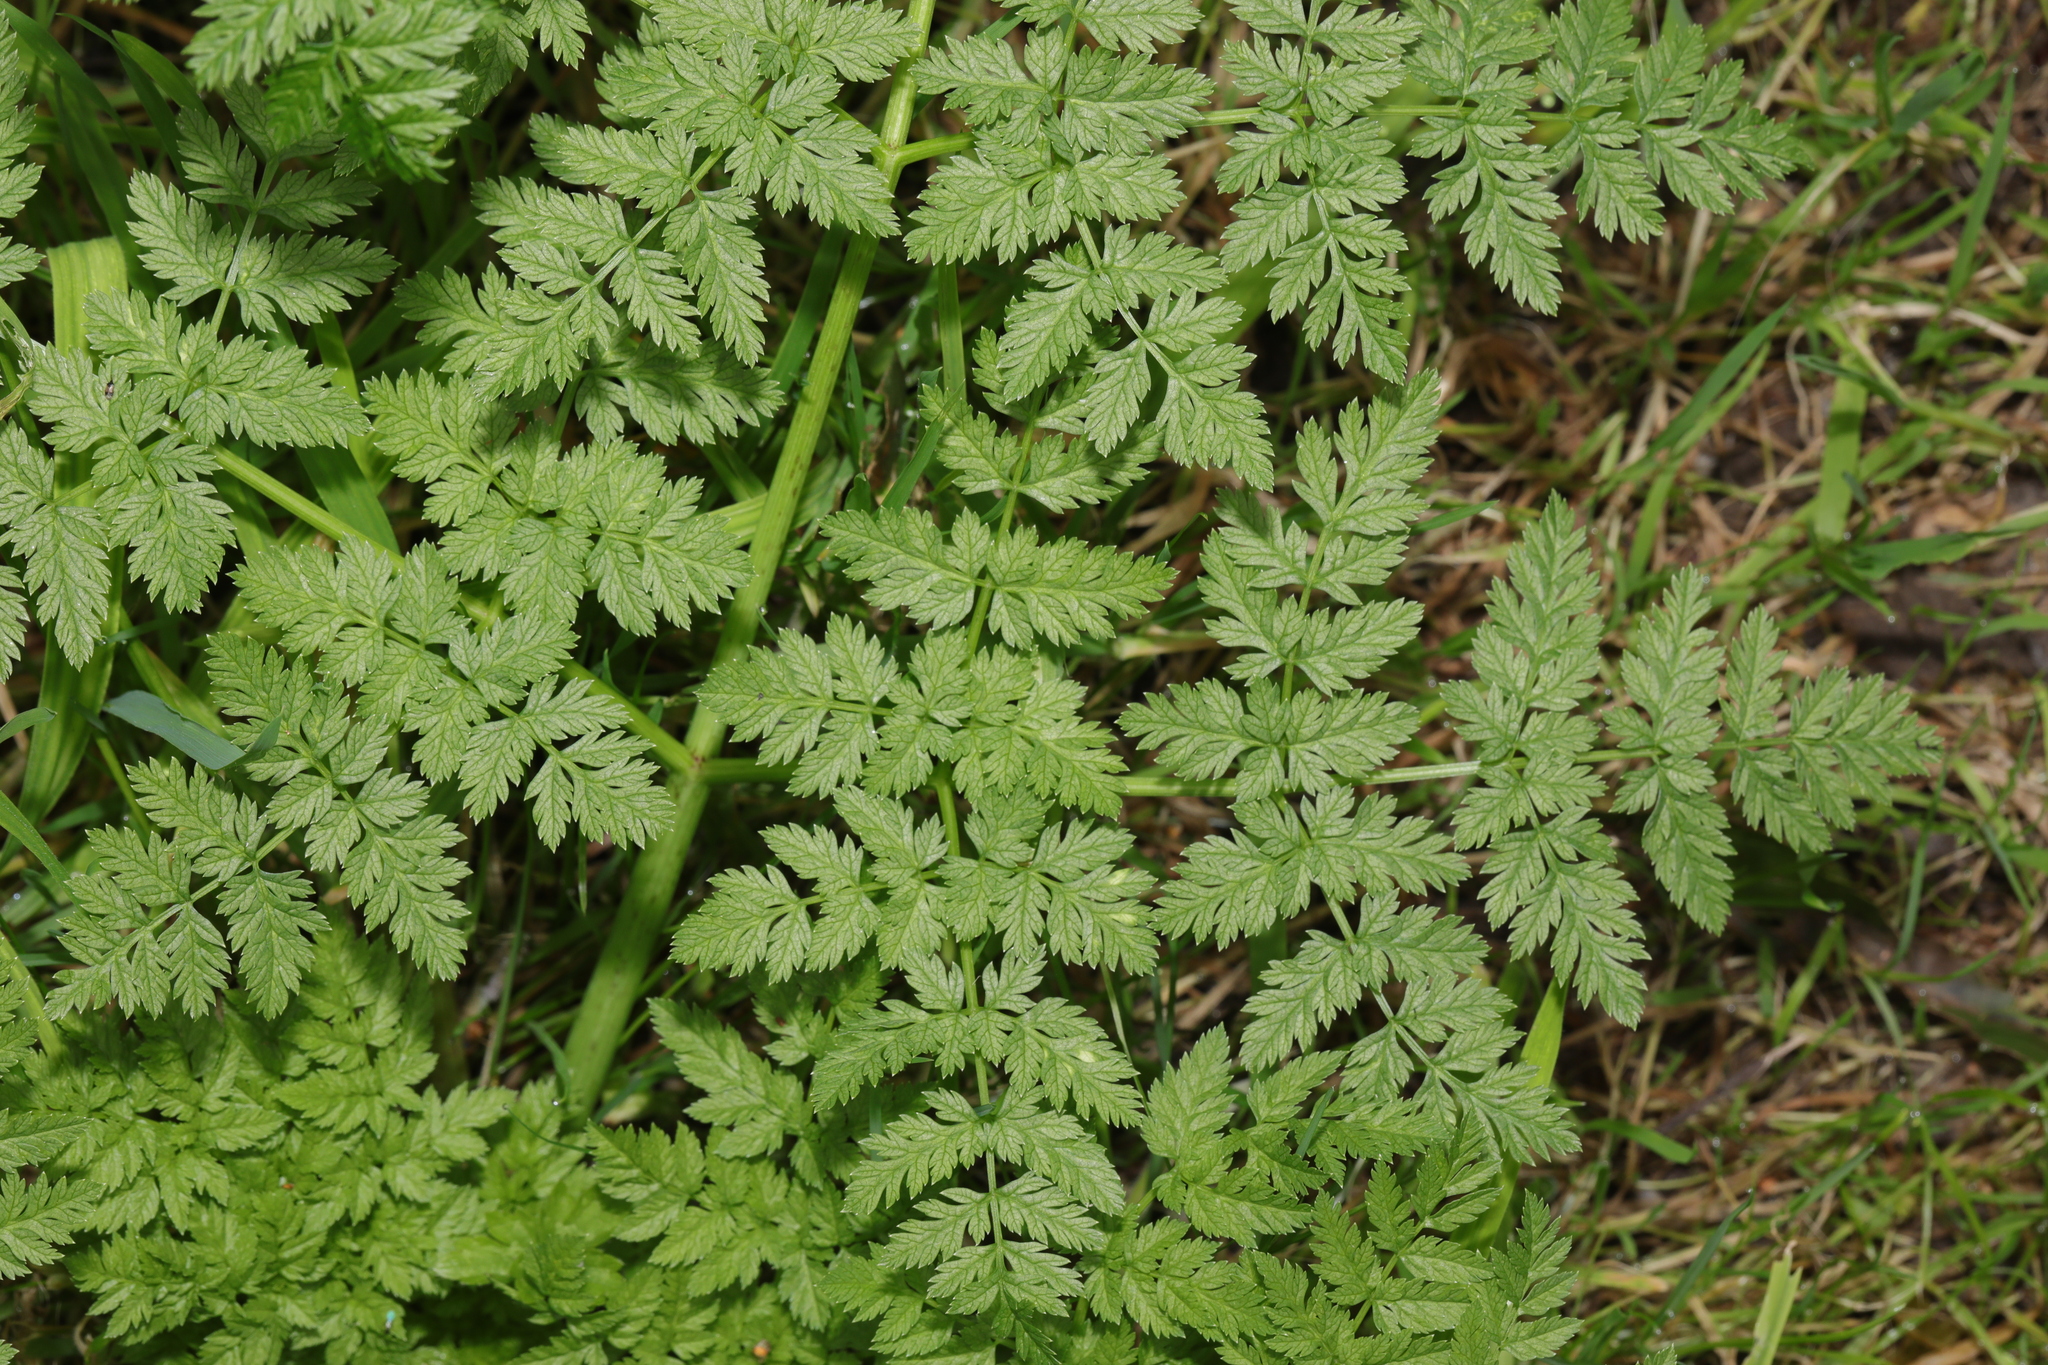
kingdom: Plantae
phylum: Tracheophyta
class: Magnoliopsida
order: Apiales
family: Apiaceae
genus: Anthriscus
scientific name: Anthriscus sylvestris
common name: Cow parsley
